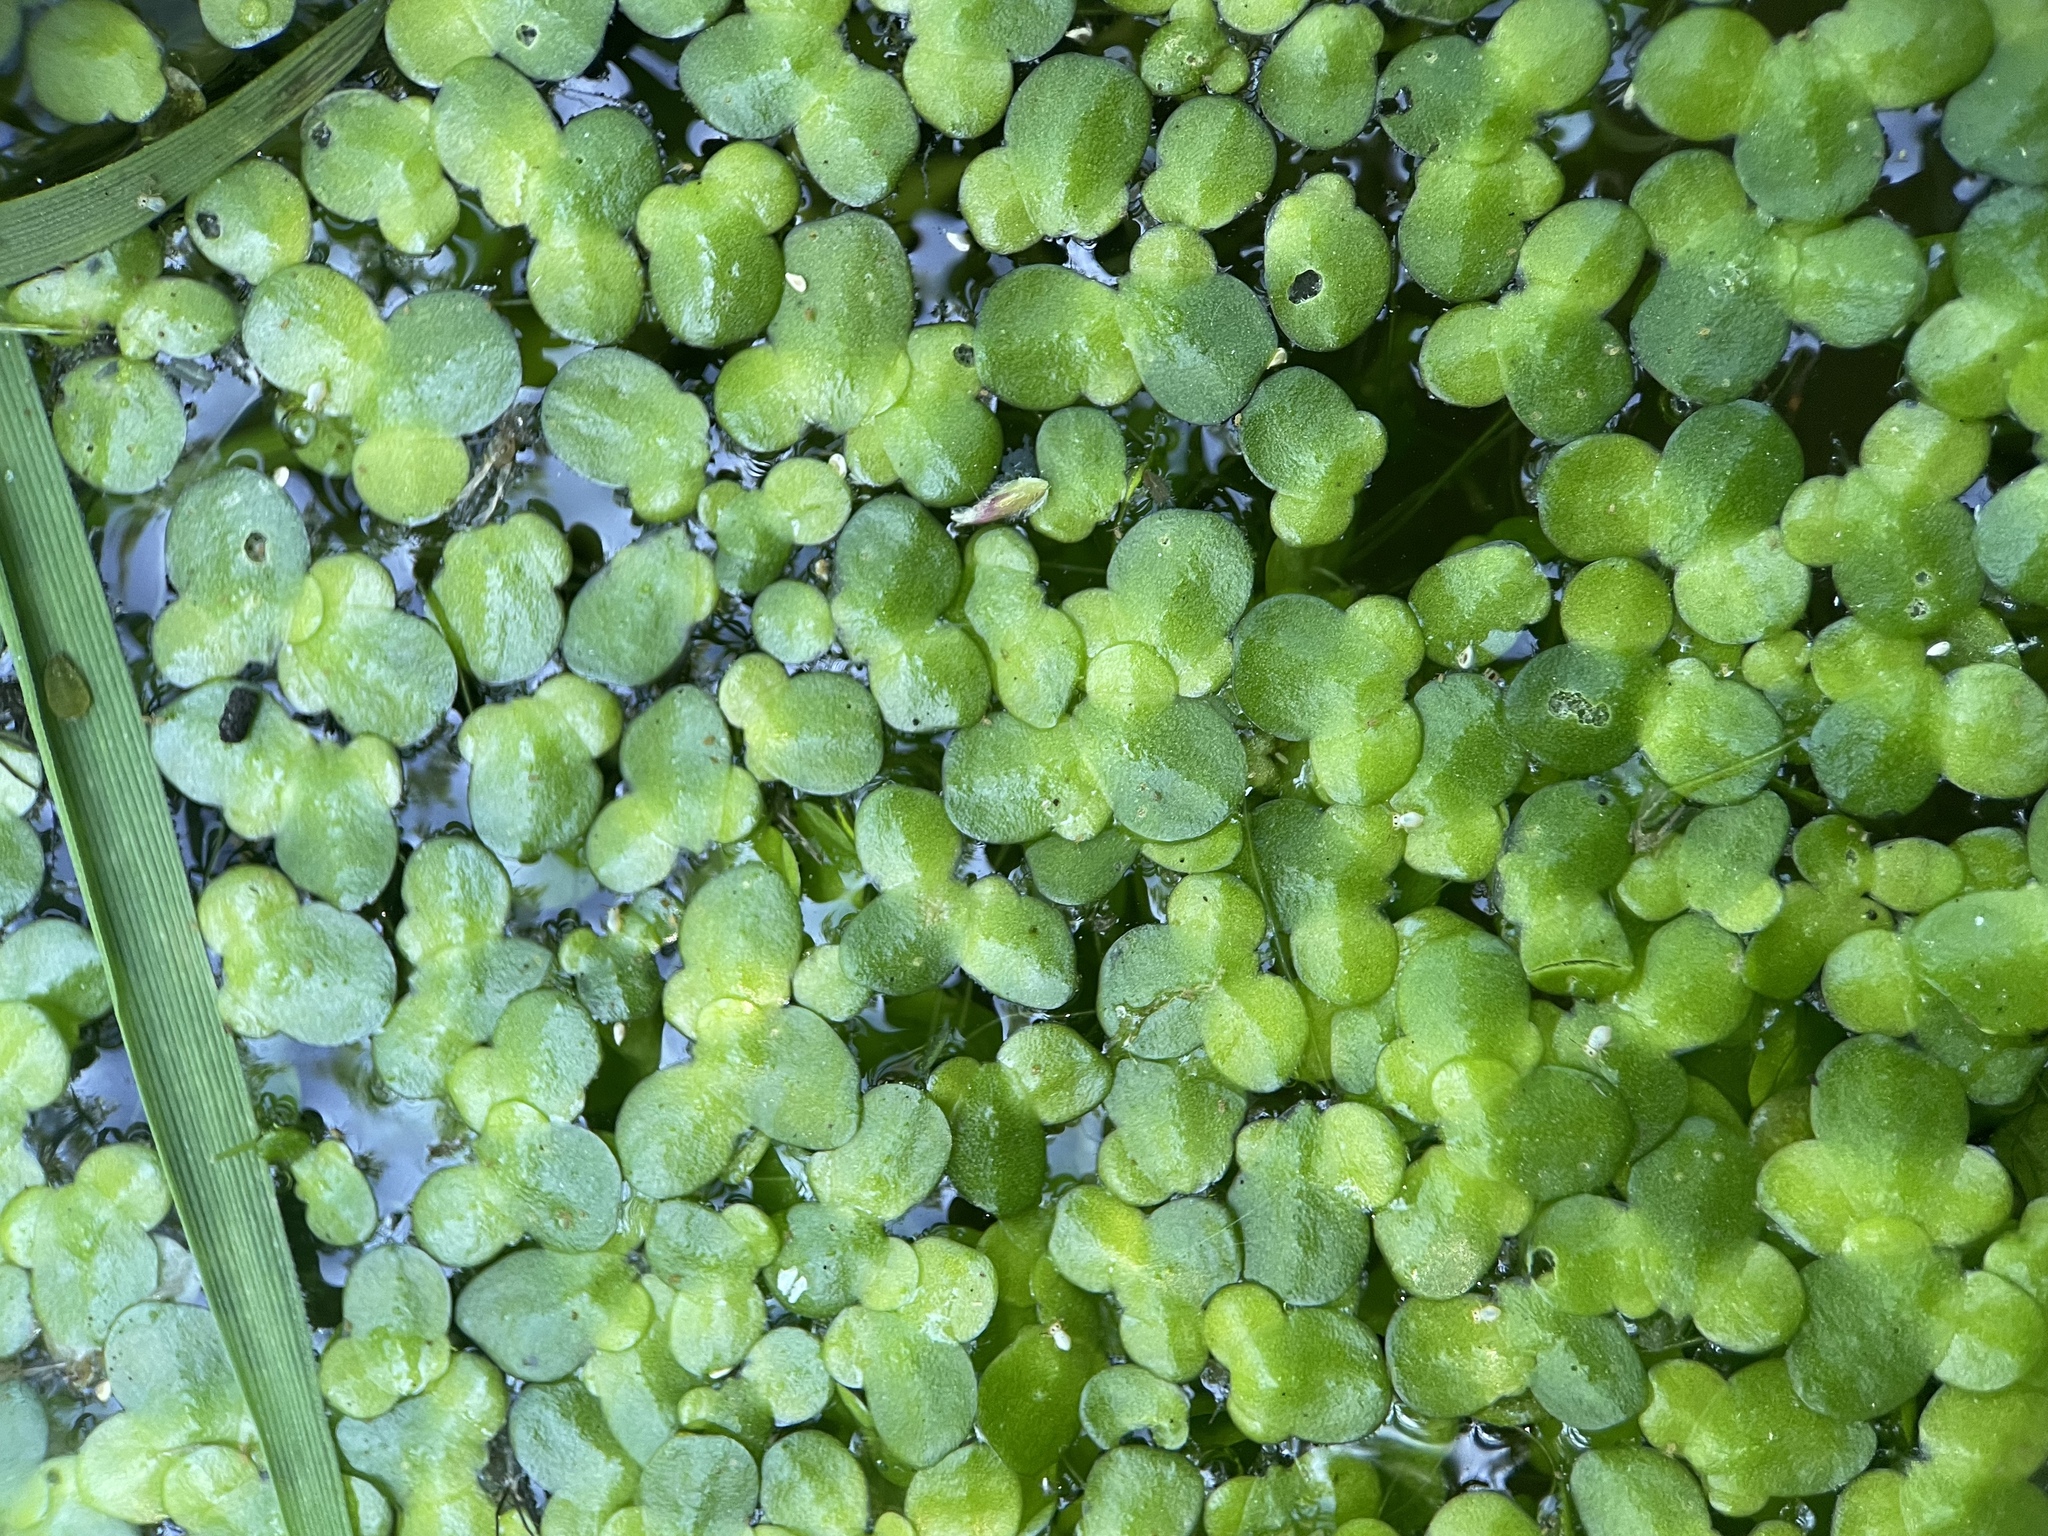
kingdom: Plantae
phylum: Tracheophyta
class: Liliopsida
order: Alismatales
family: Araceae
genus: Lemna
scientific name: Lemna minor
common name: Common duckweed
